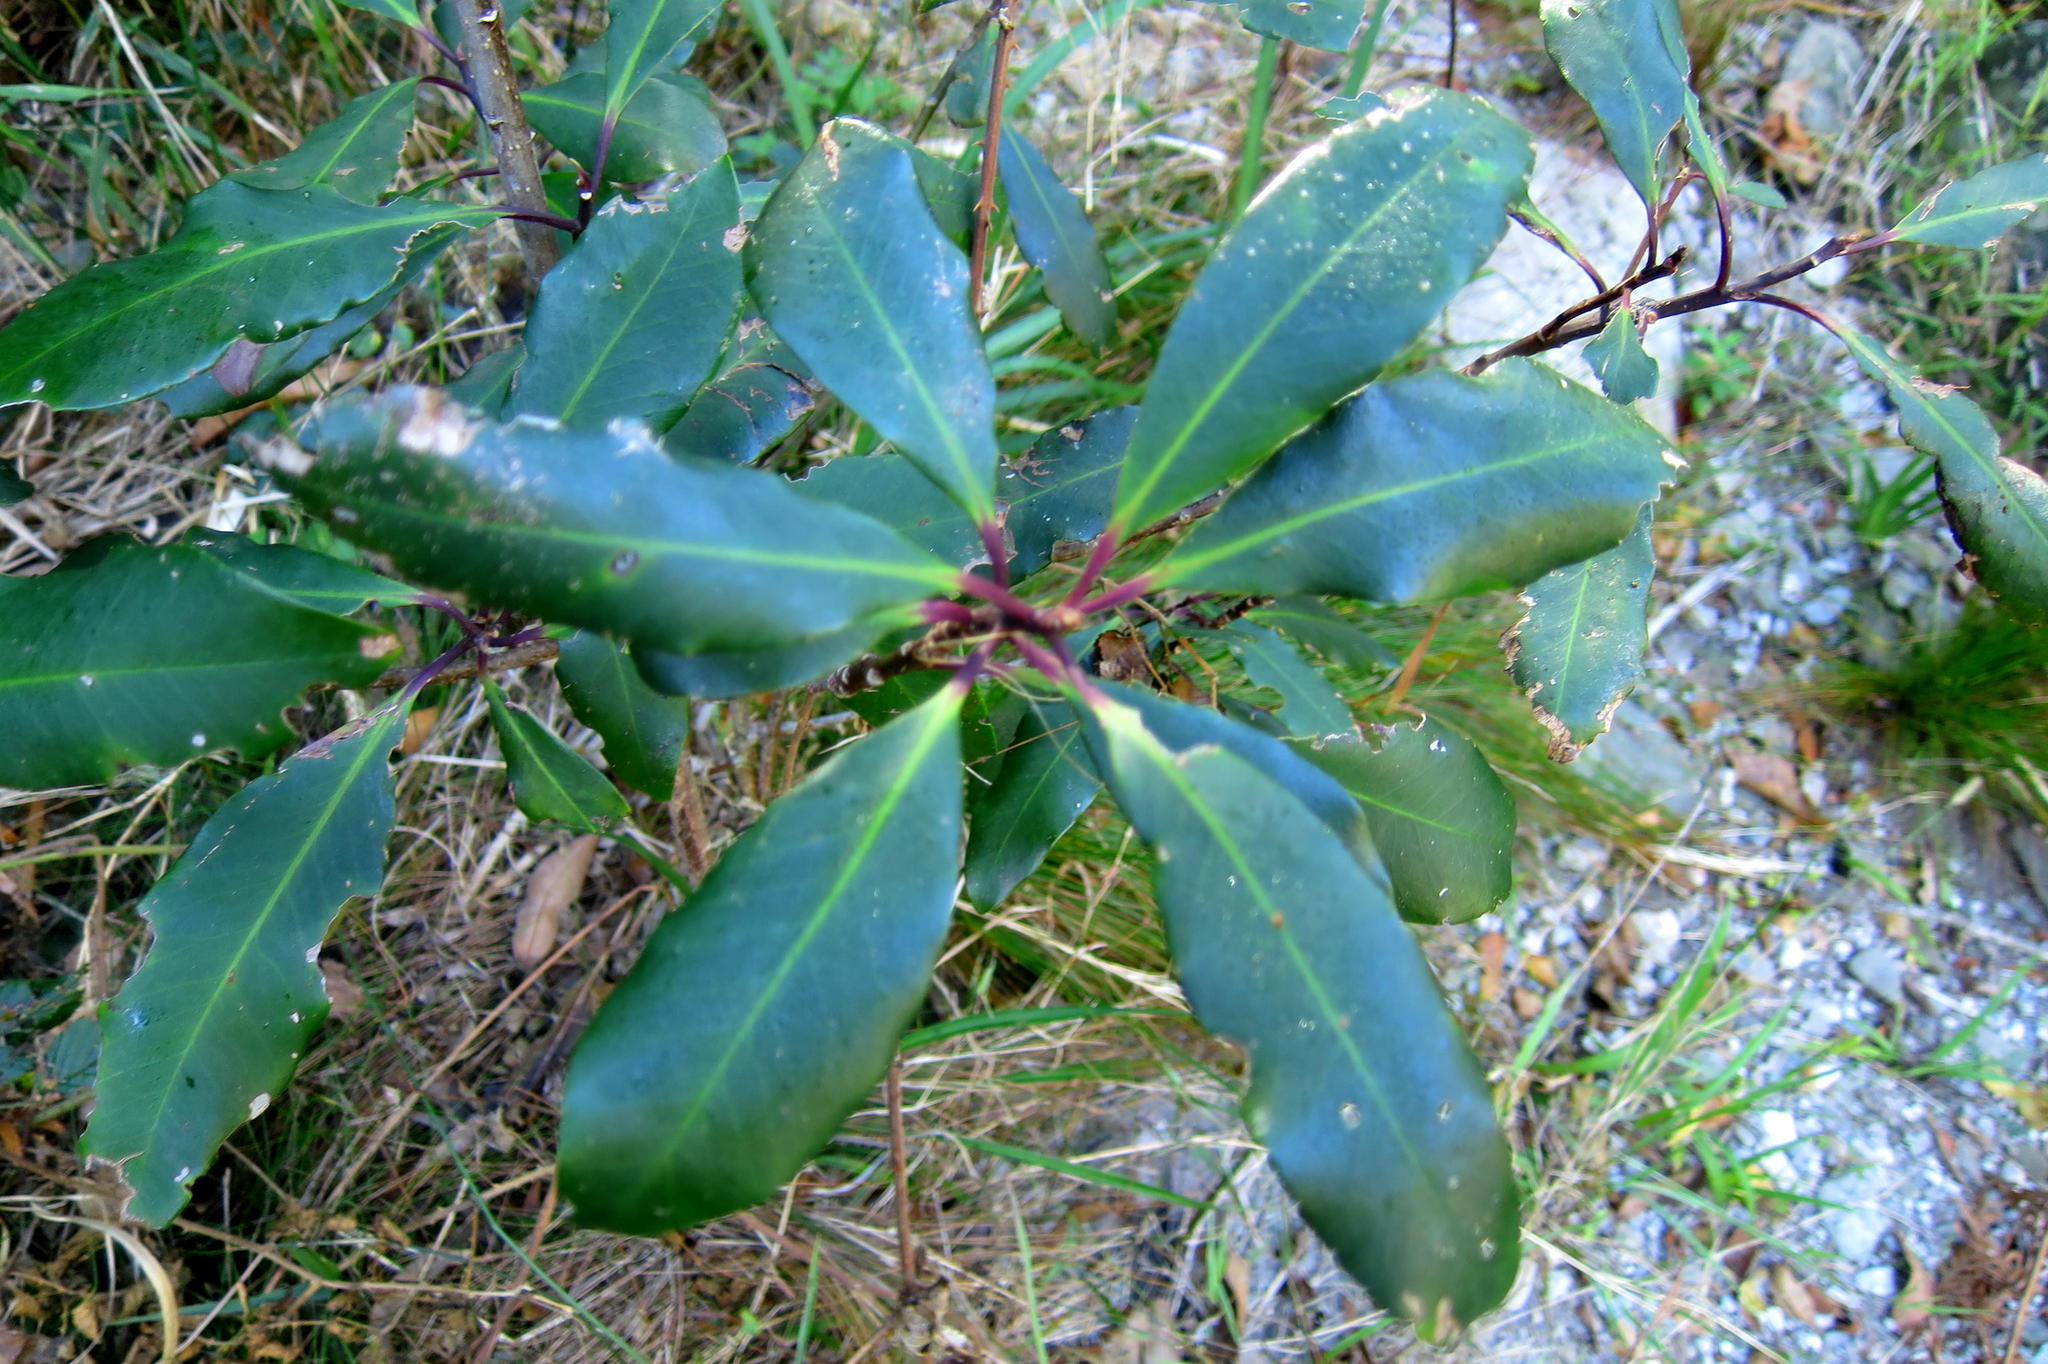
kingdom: Plantae
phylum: Tracheophyta
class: Magnoliopsida
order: Ericales
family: Primulaceae
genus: Myrsine
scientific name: Myrsine melanophloeos
